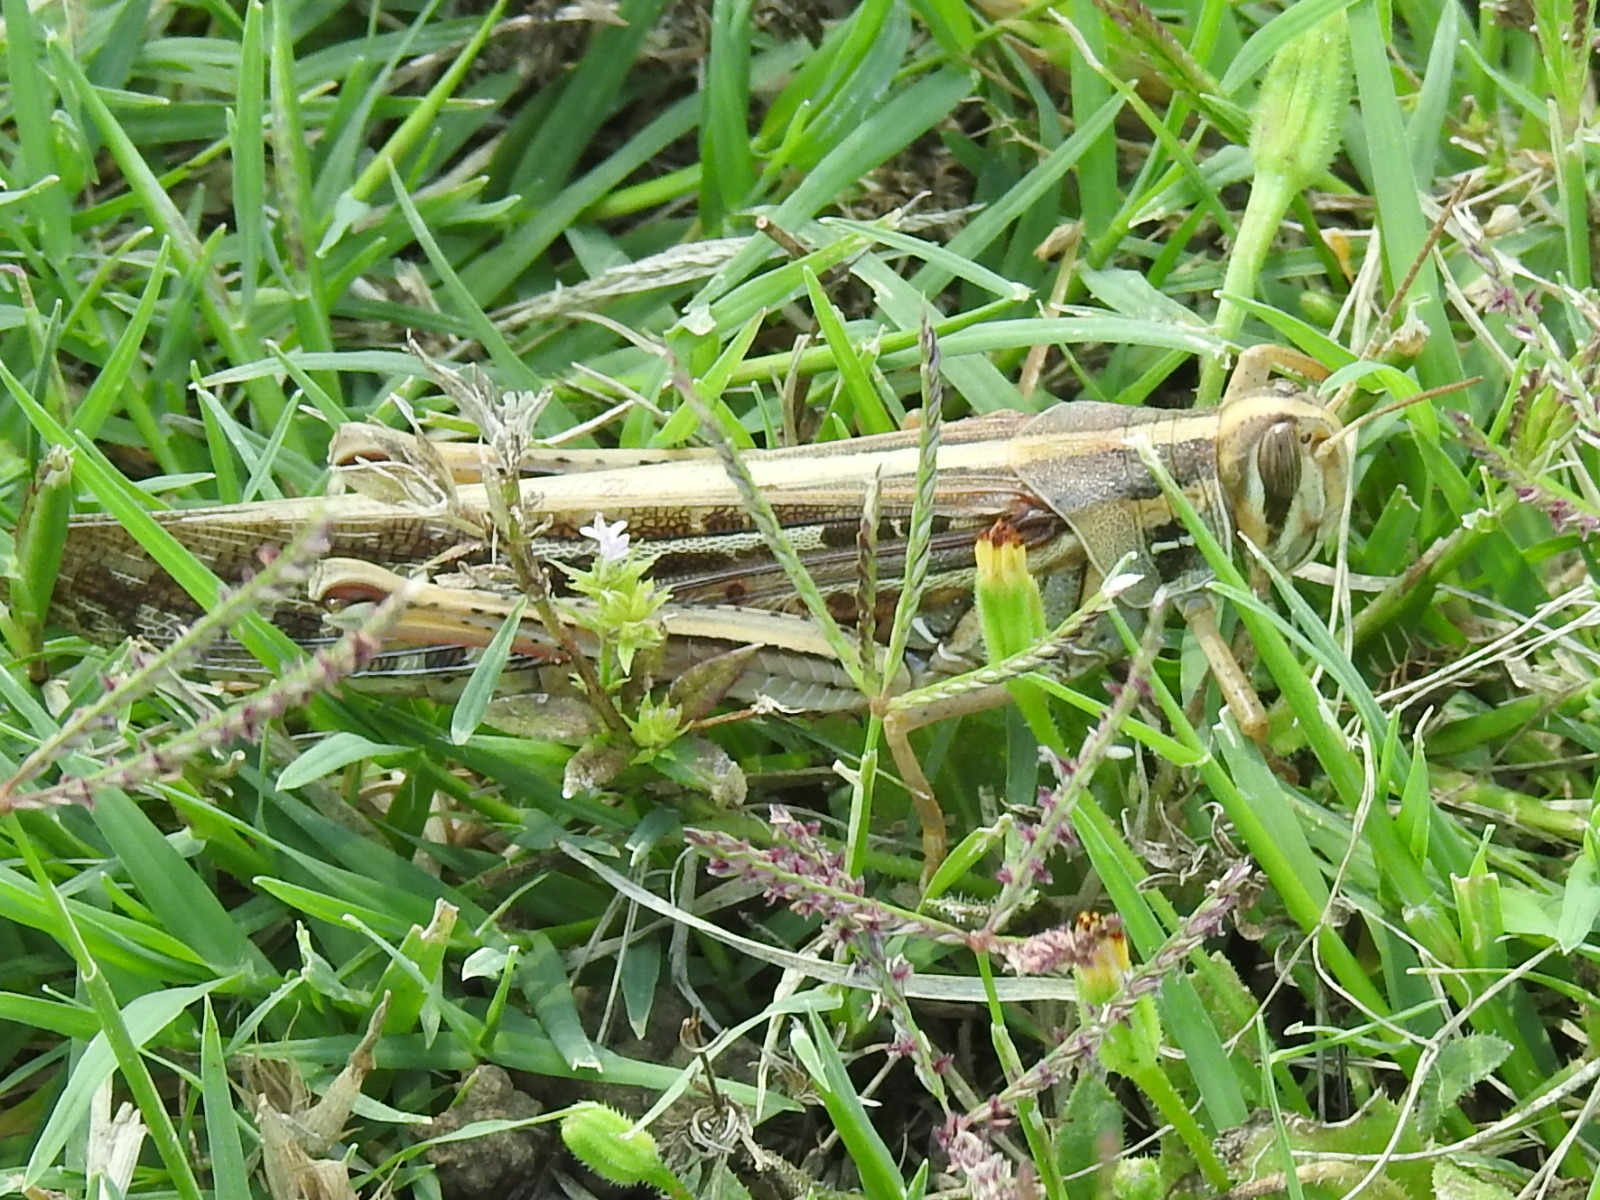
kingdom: Animalia
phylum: Arthropoda
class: Insecta
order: Orthoptera
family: Acrididae
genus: Schistocerca
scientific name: Schistocerca americana
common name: American bird locust
